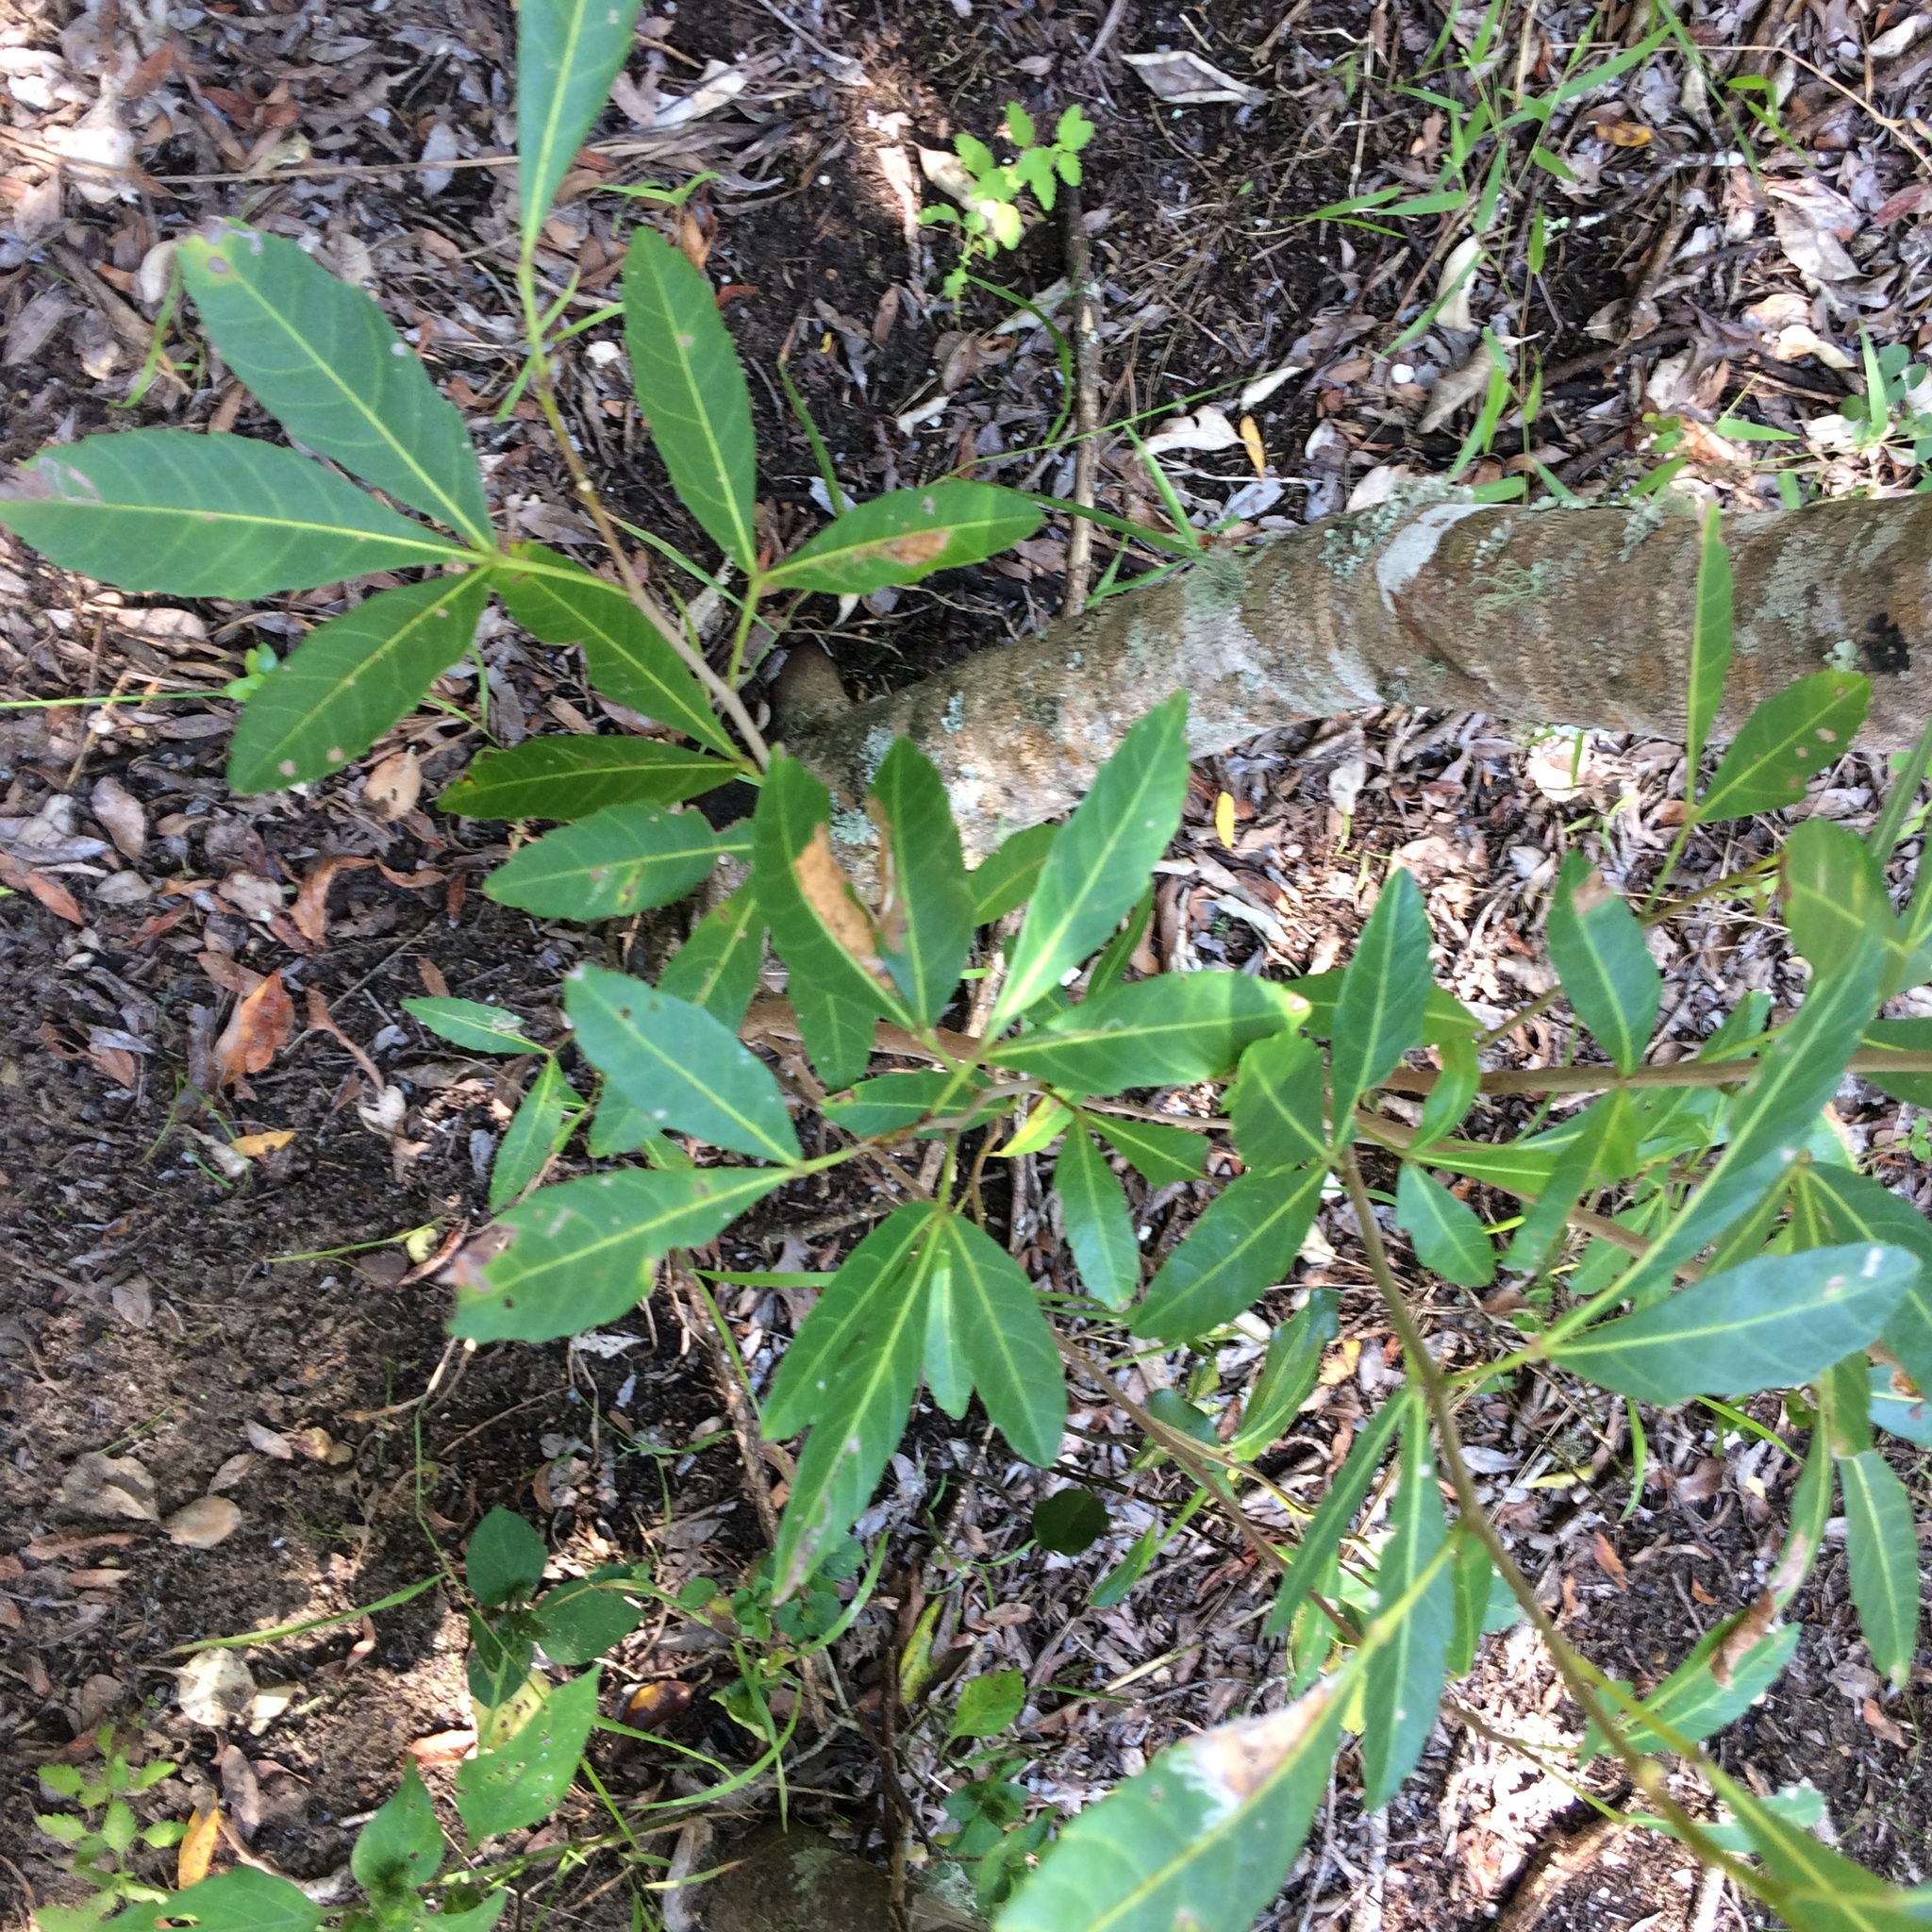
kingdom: Plantae
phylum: Tracheophyta
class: Magnoliopsida
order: Sapindales
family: Sapindaceae
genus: Allophylus
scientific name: Allophylus natalensis
